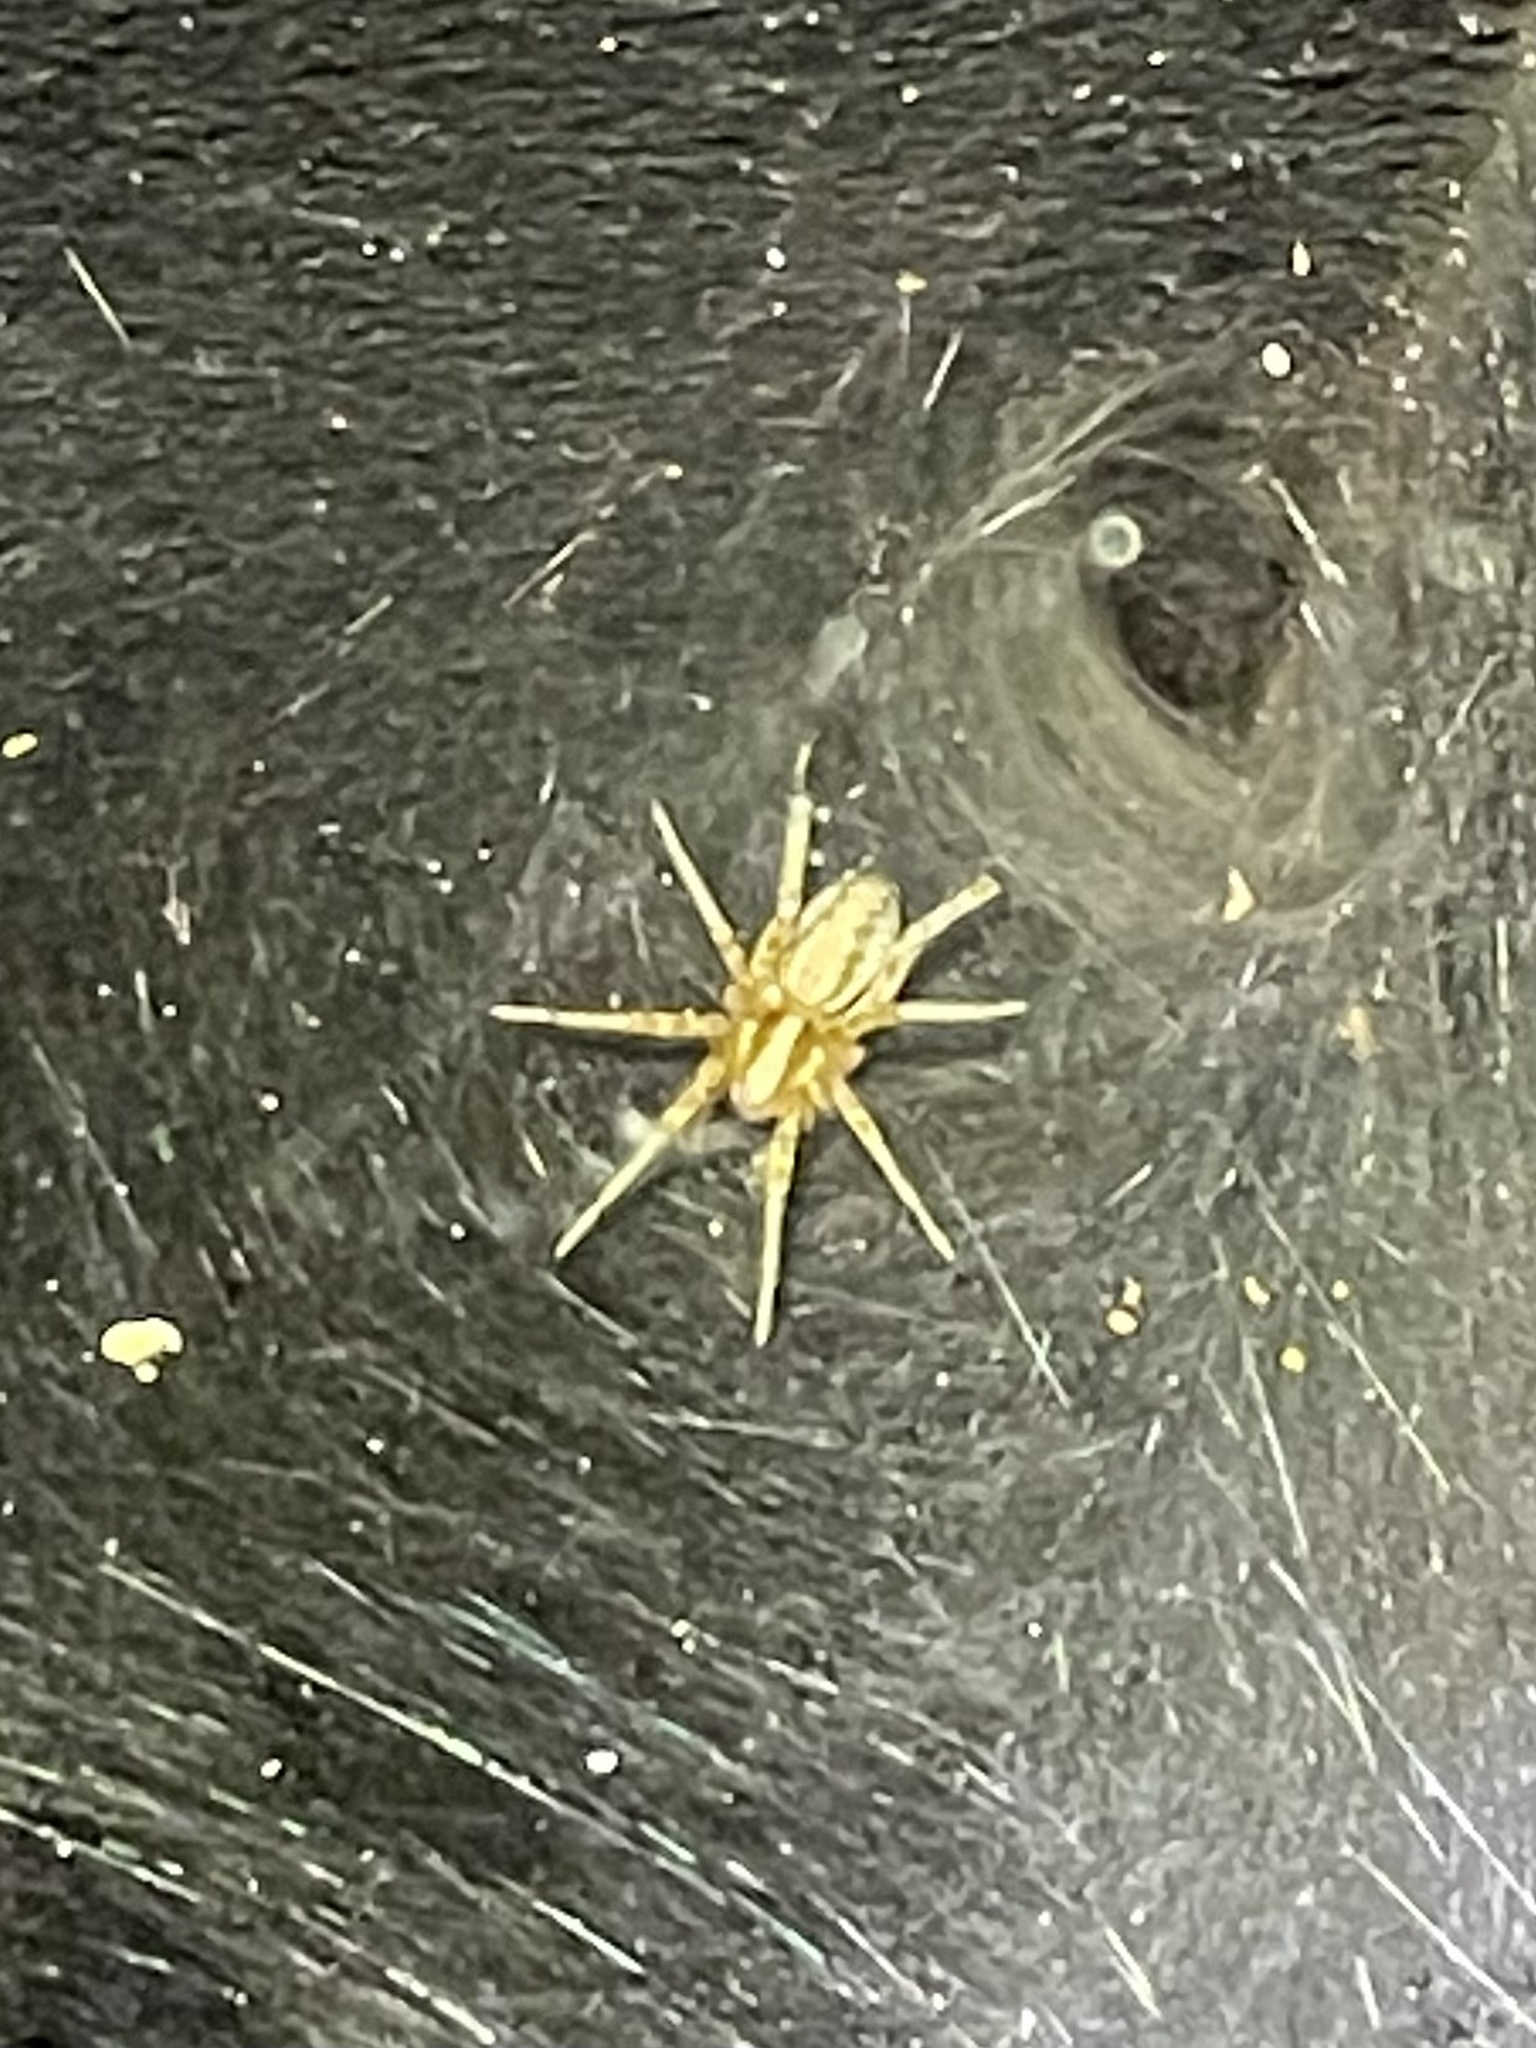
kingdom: Animalia
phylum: Arthropoda
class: Arachnida
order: Araneae
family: Agelenidae
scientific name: Agelenidae
